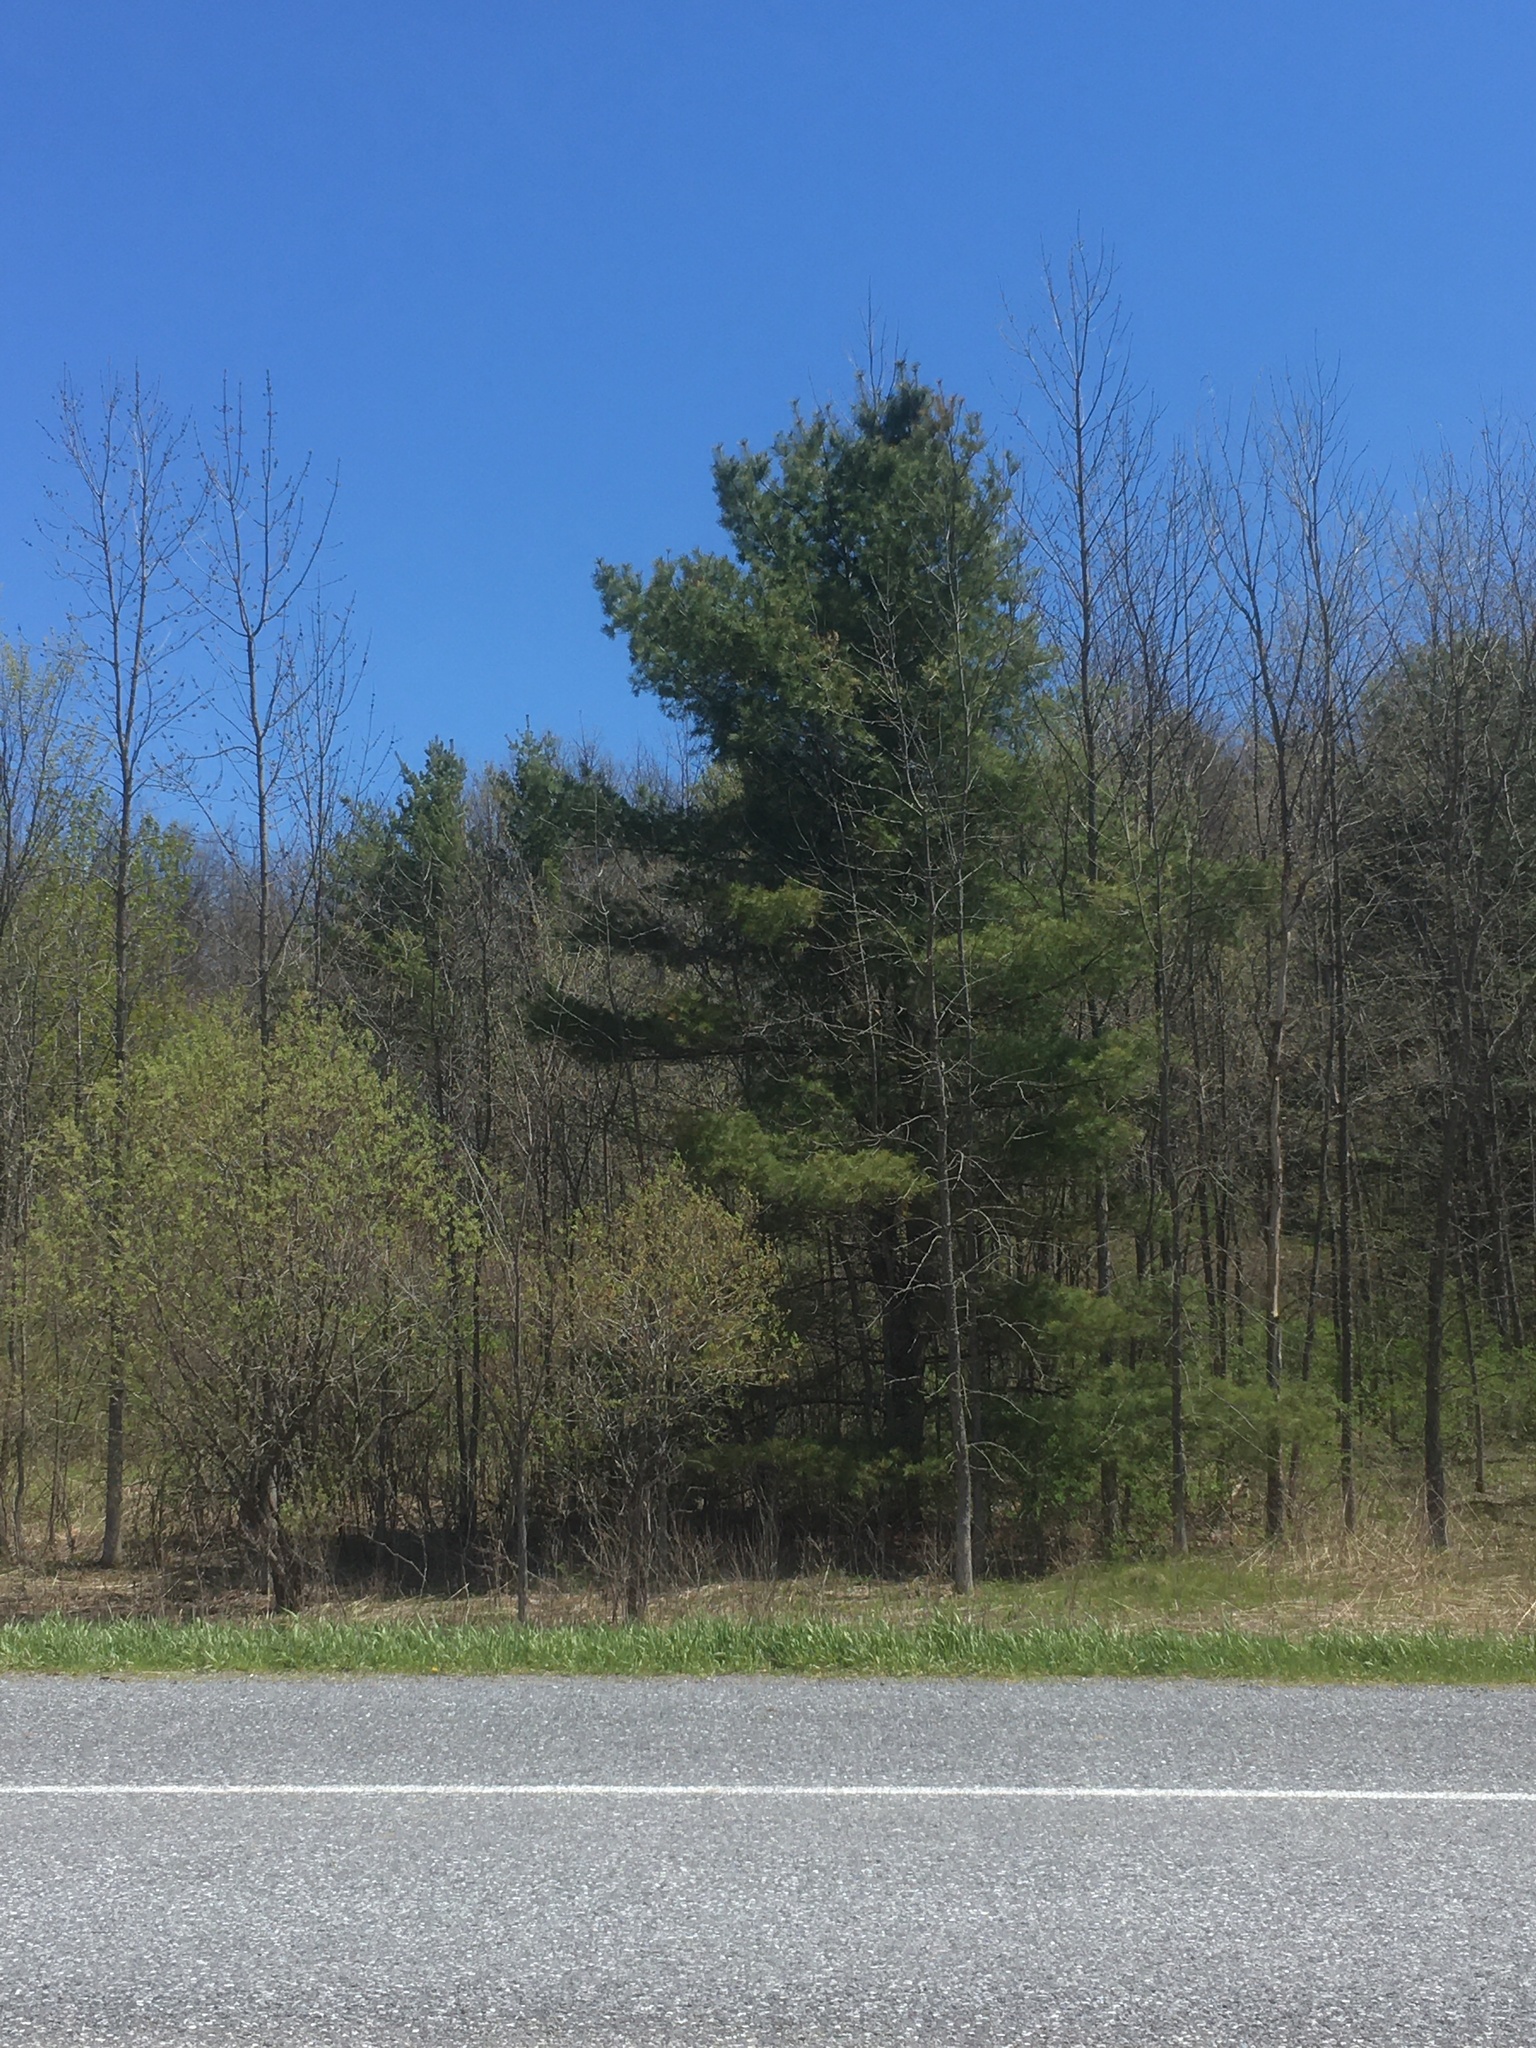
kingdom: Plantae
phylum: Tracheophyta
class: Pinopsida
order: Pinales
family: Pinaceae
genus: Pinus
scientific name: Pinus strobus
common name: Weymouth pine
